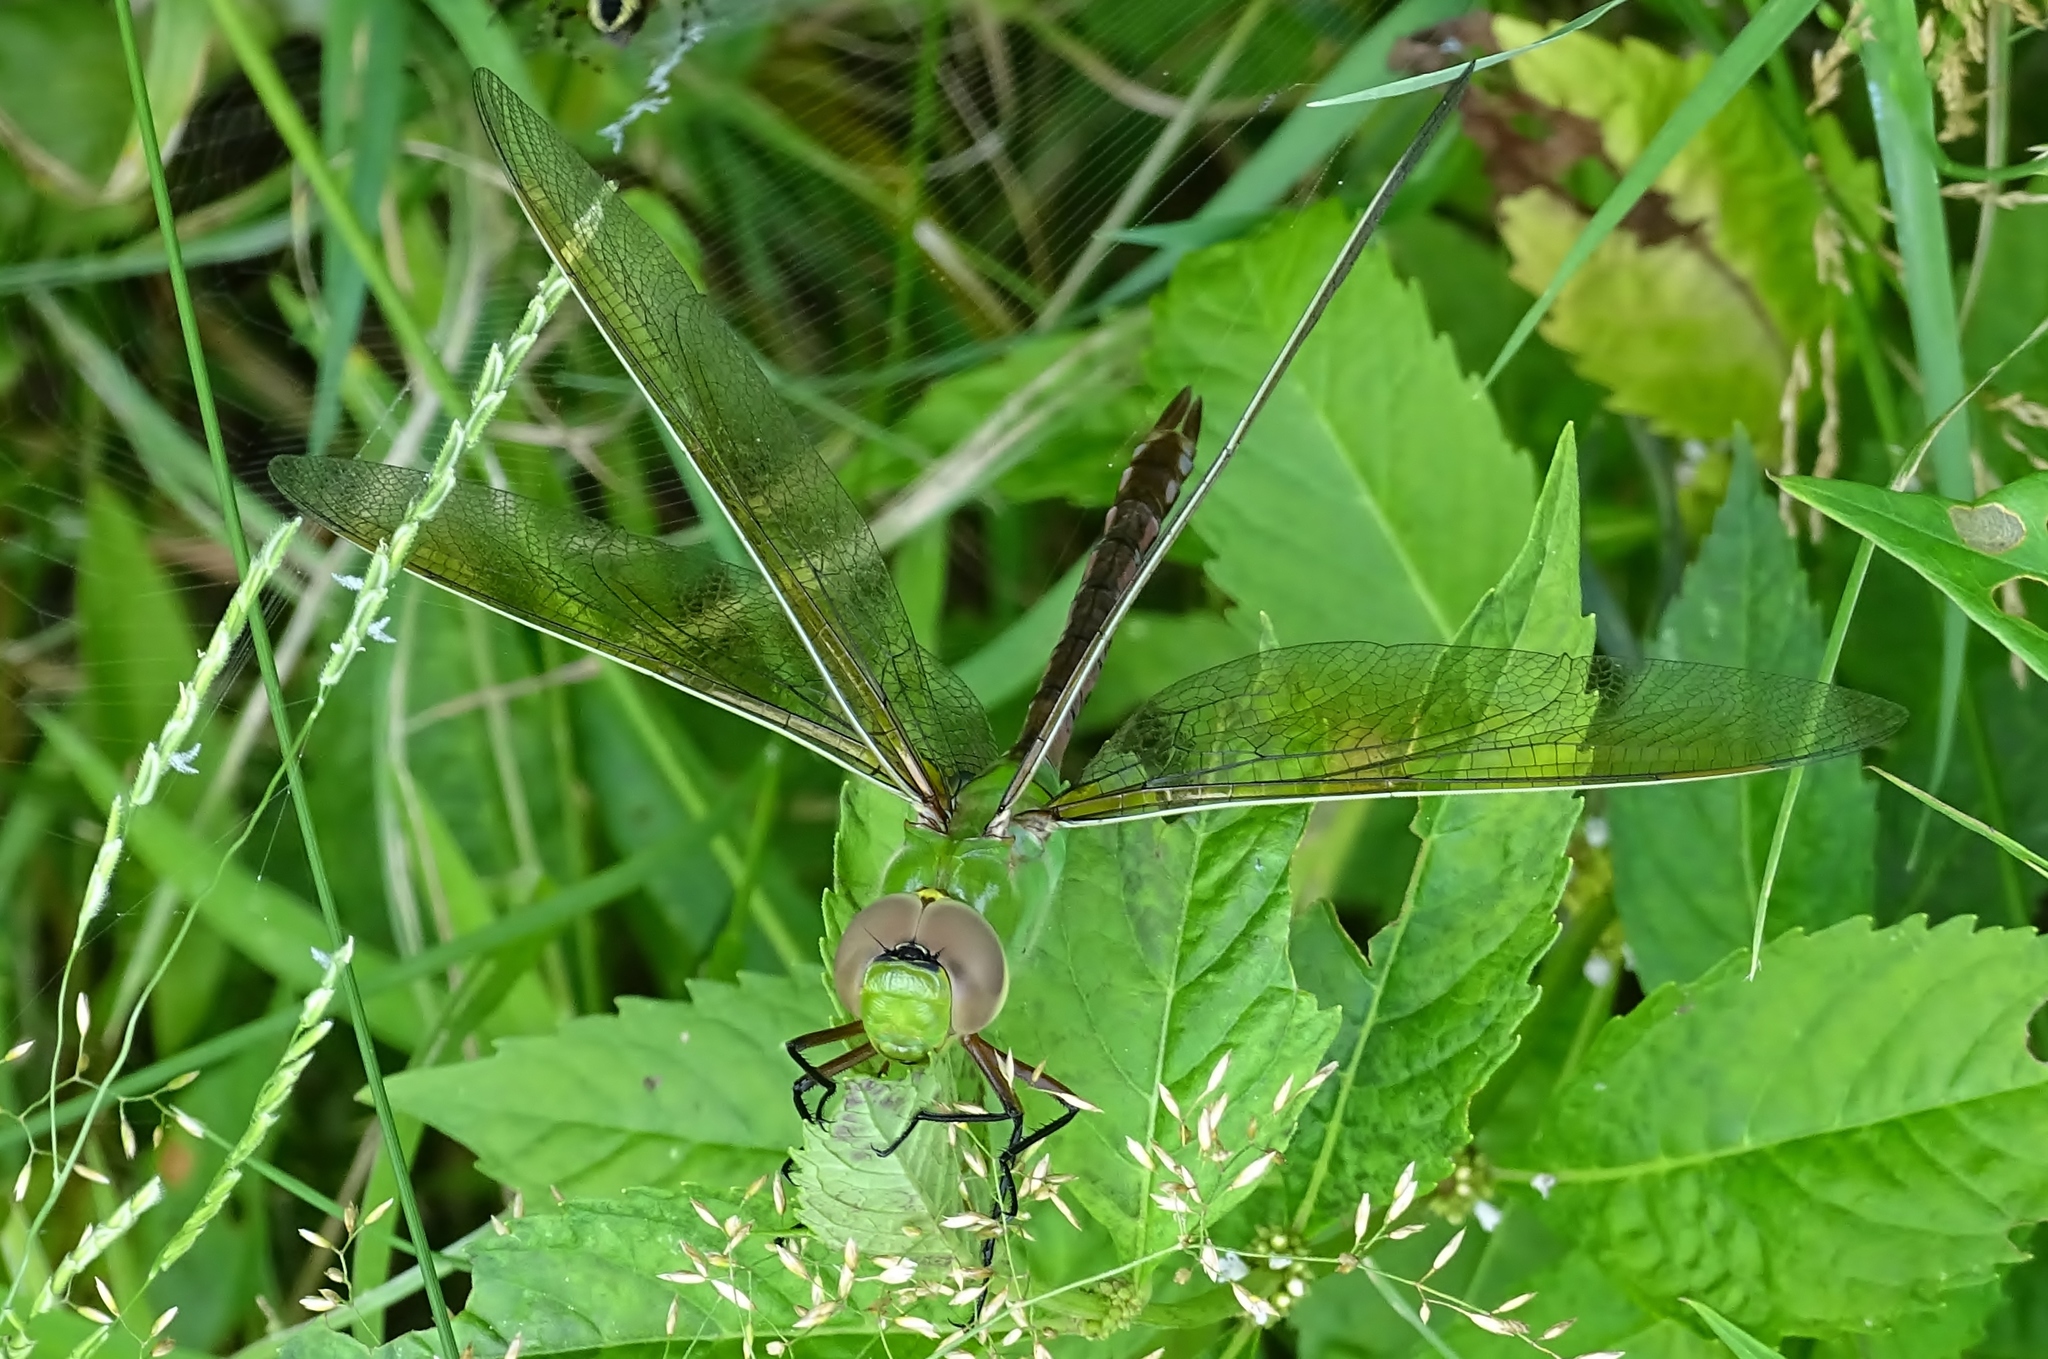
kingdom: Animalia
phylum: Arthropoda
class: Insecta
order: Odonata
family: Aeshnidae
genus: Anax
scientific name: Anax junius
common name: Common green darner
